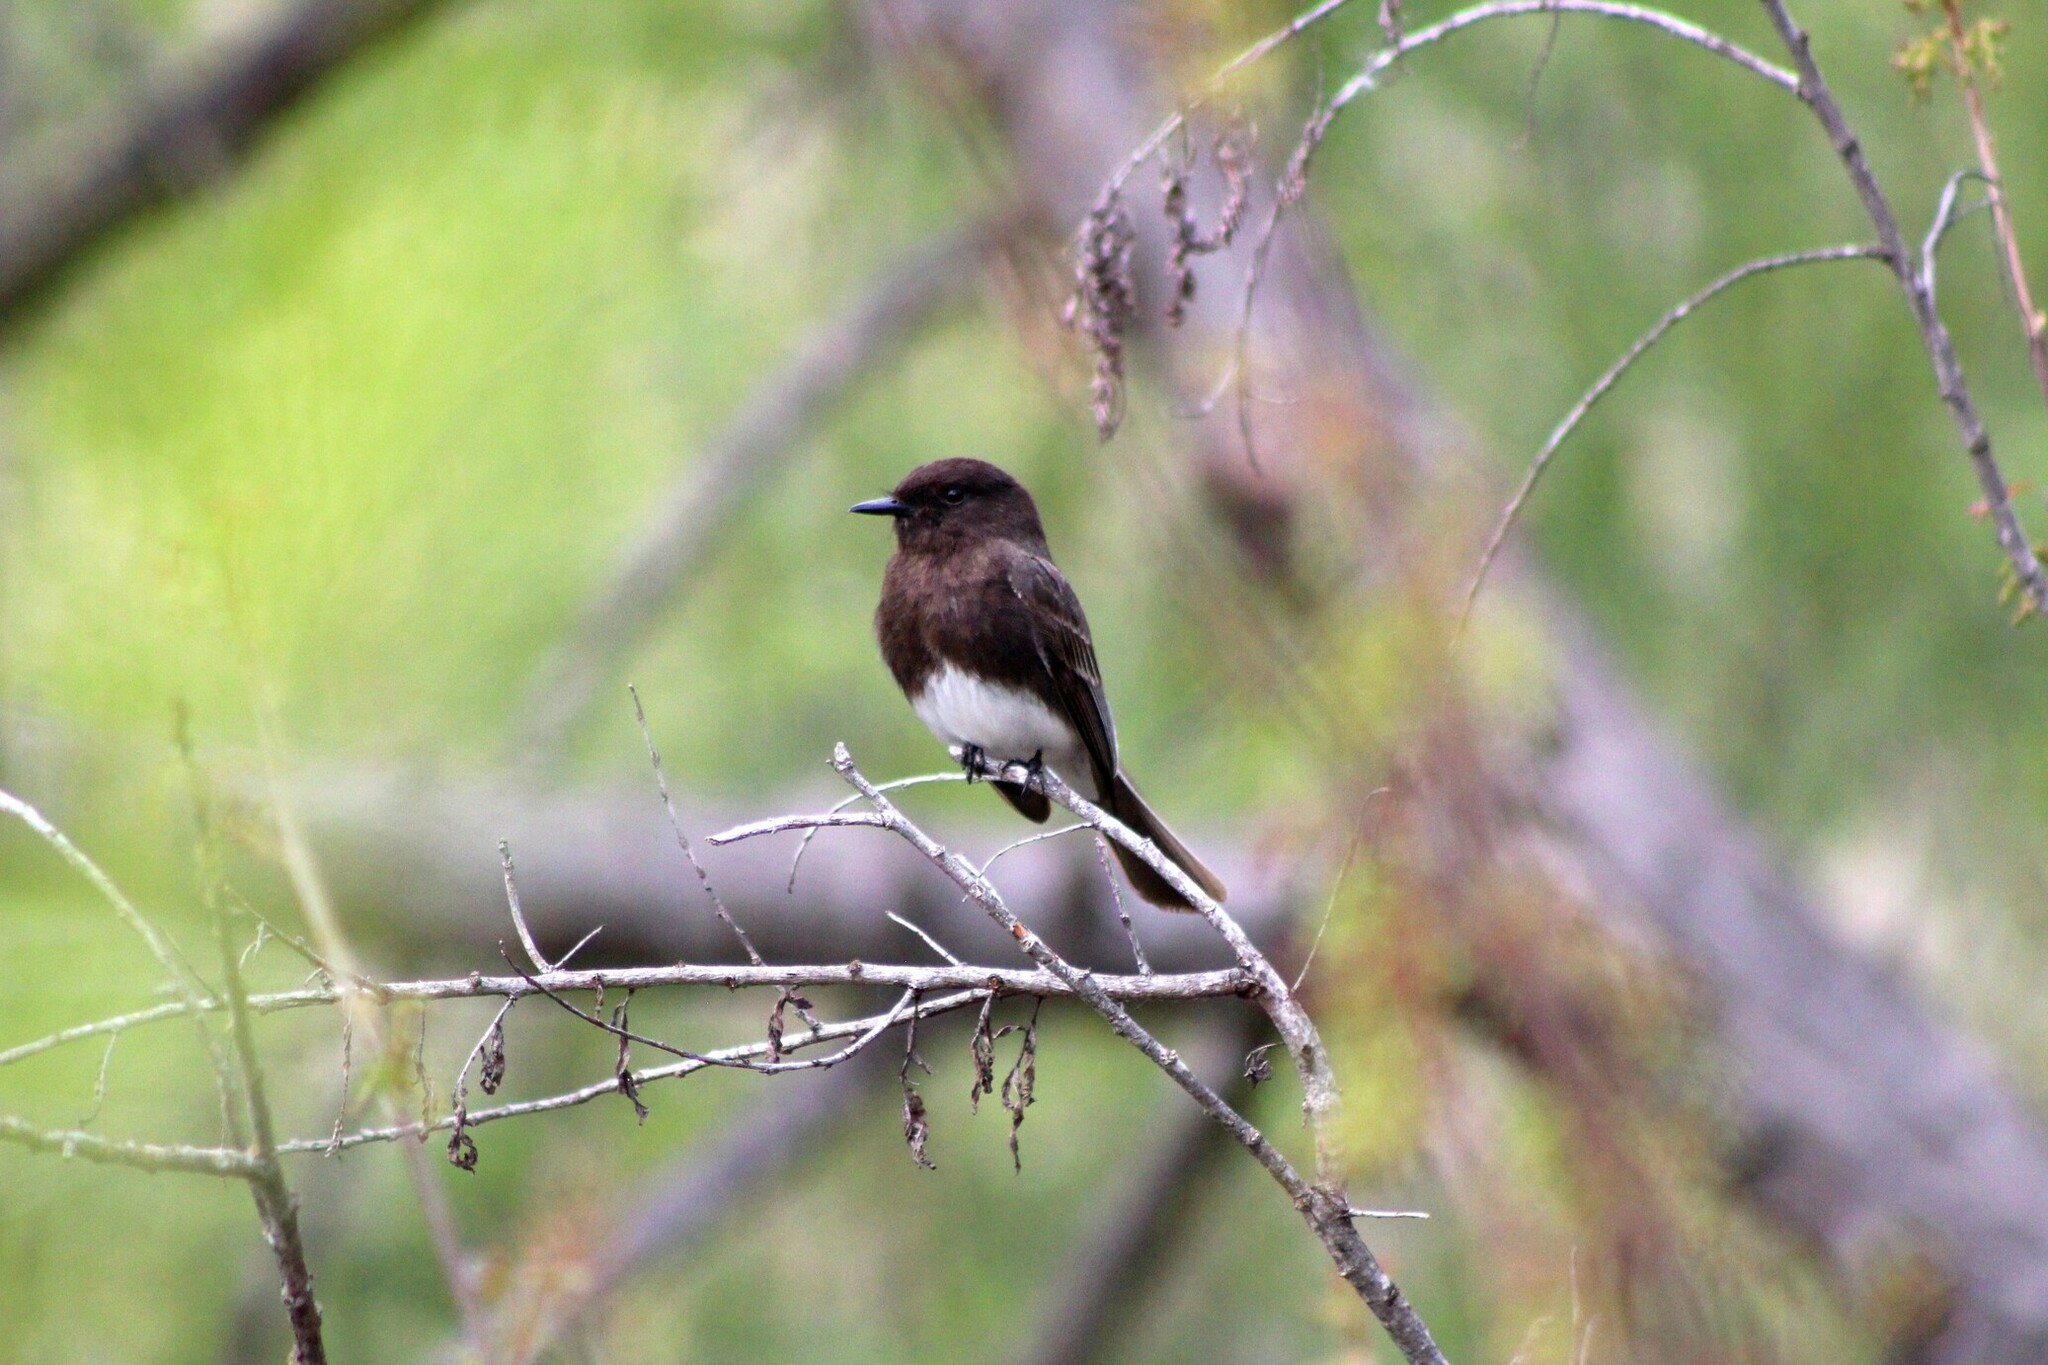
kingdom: Animalia
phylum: Chordata
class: Aves
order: Passeriformes
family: Tyrannidae
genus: Sayornis
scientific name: Sayornis nigricans
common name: Black phoebe
